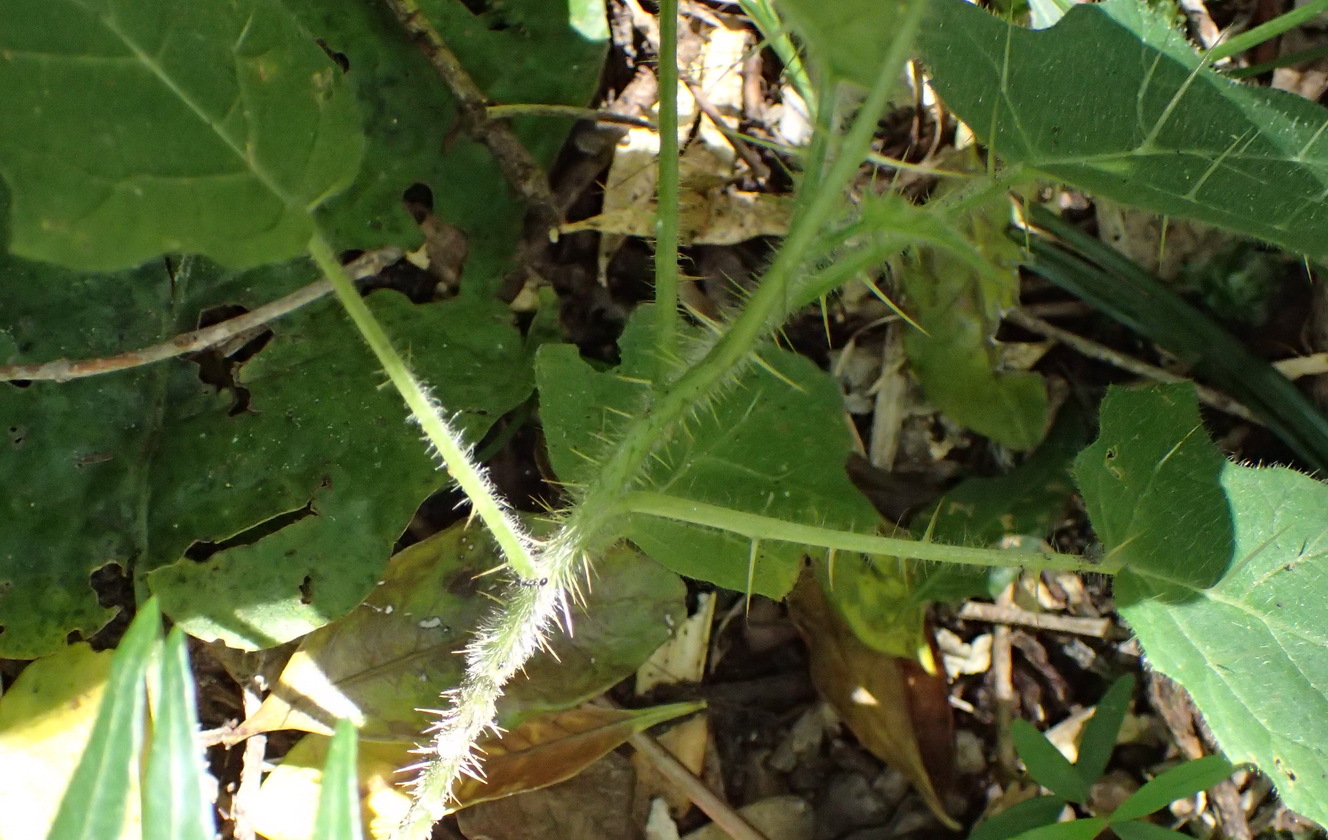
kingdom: Plantae
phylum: Tracheophyta
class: Magnoliopsida
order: Solanales
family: Solanaceae
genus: Solanum
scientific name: Solanum aculeatissimum
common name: Dutch eggplant
